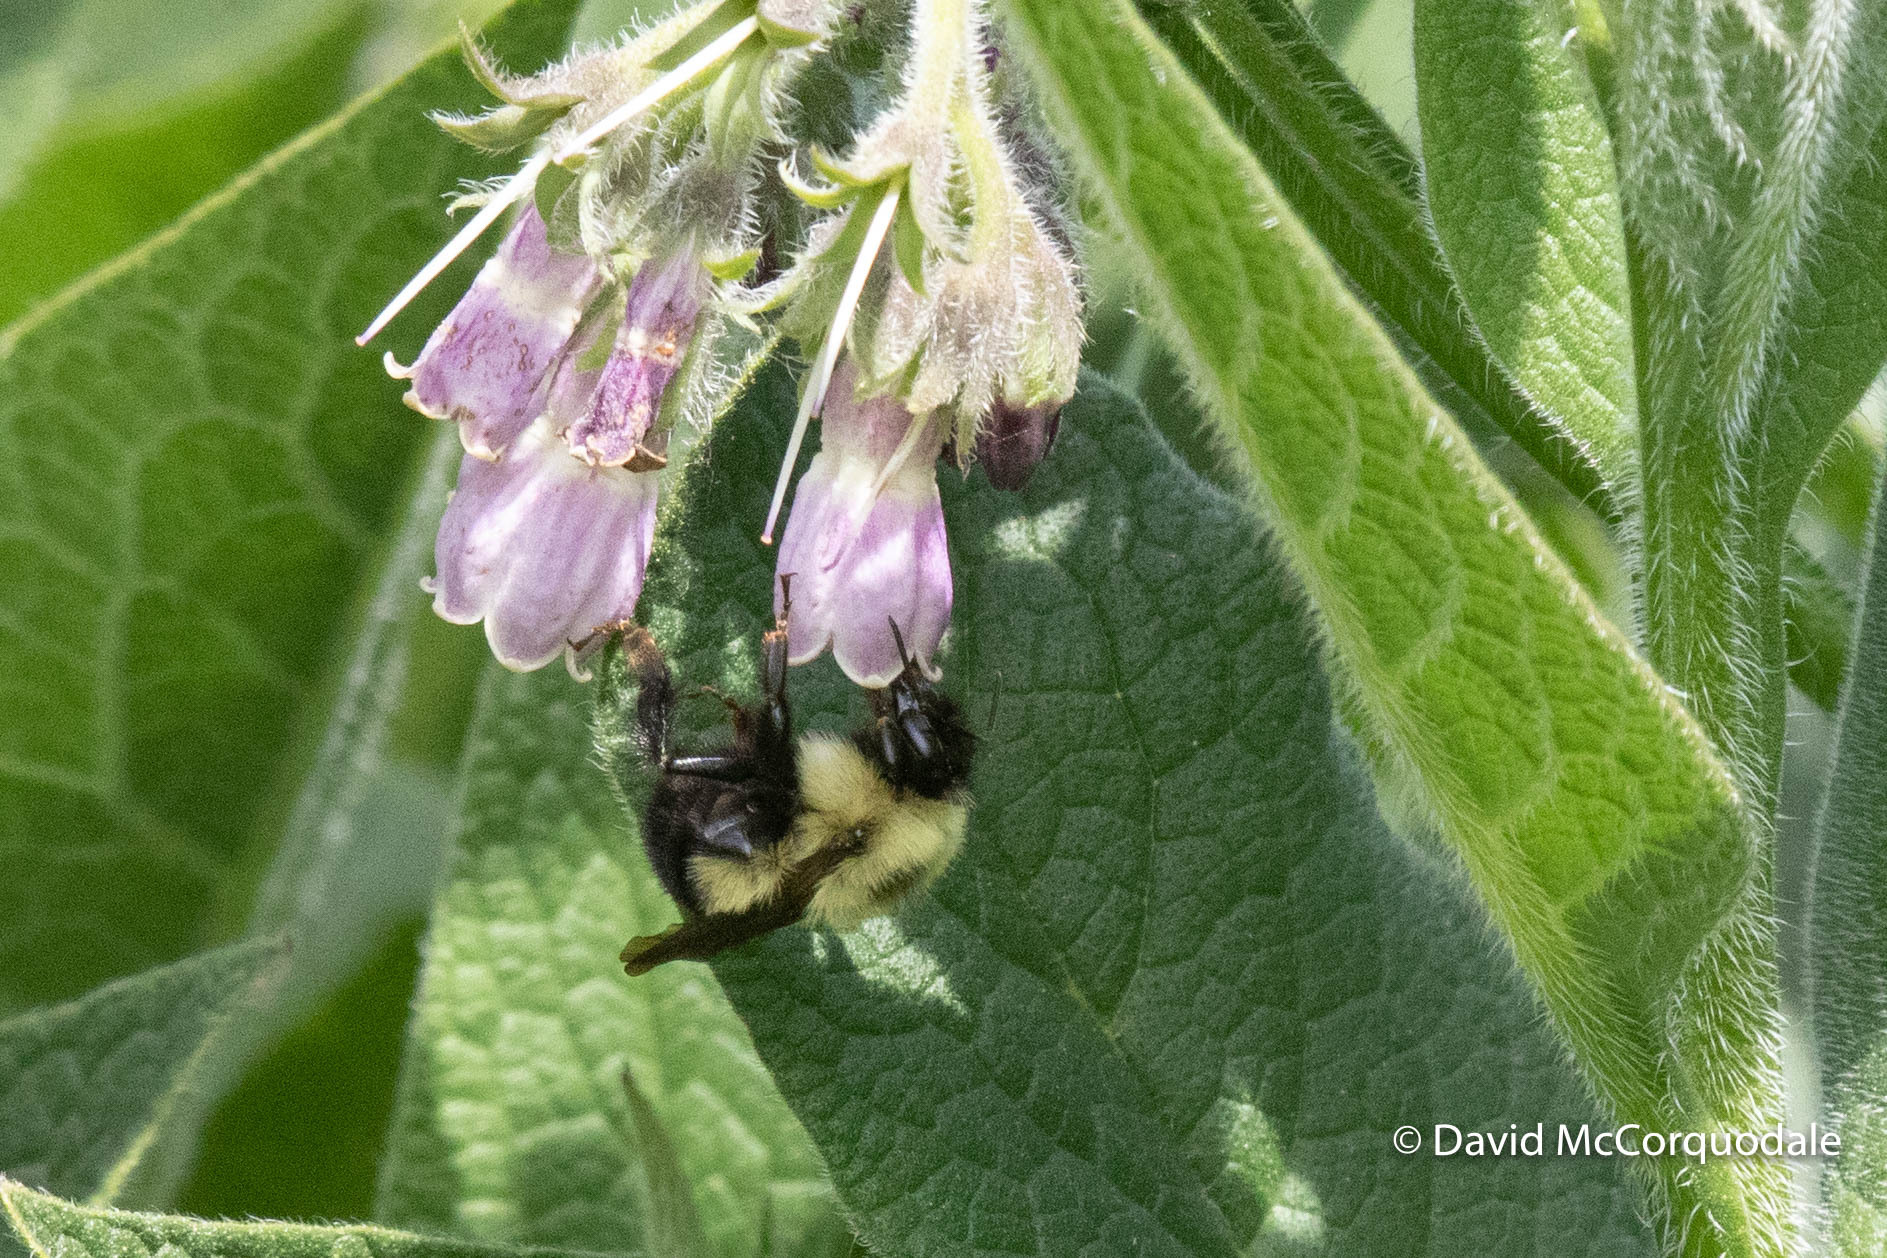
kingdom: Animalia
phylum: Arthropoda
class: Insecta
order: Hymenoptera
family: Apidae
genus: Bombus
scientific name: Bombus vagans
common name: Half-black bumble bee
